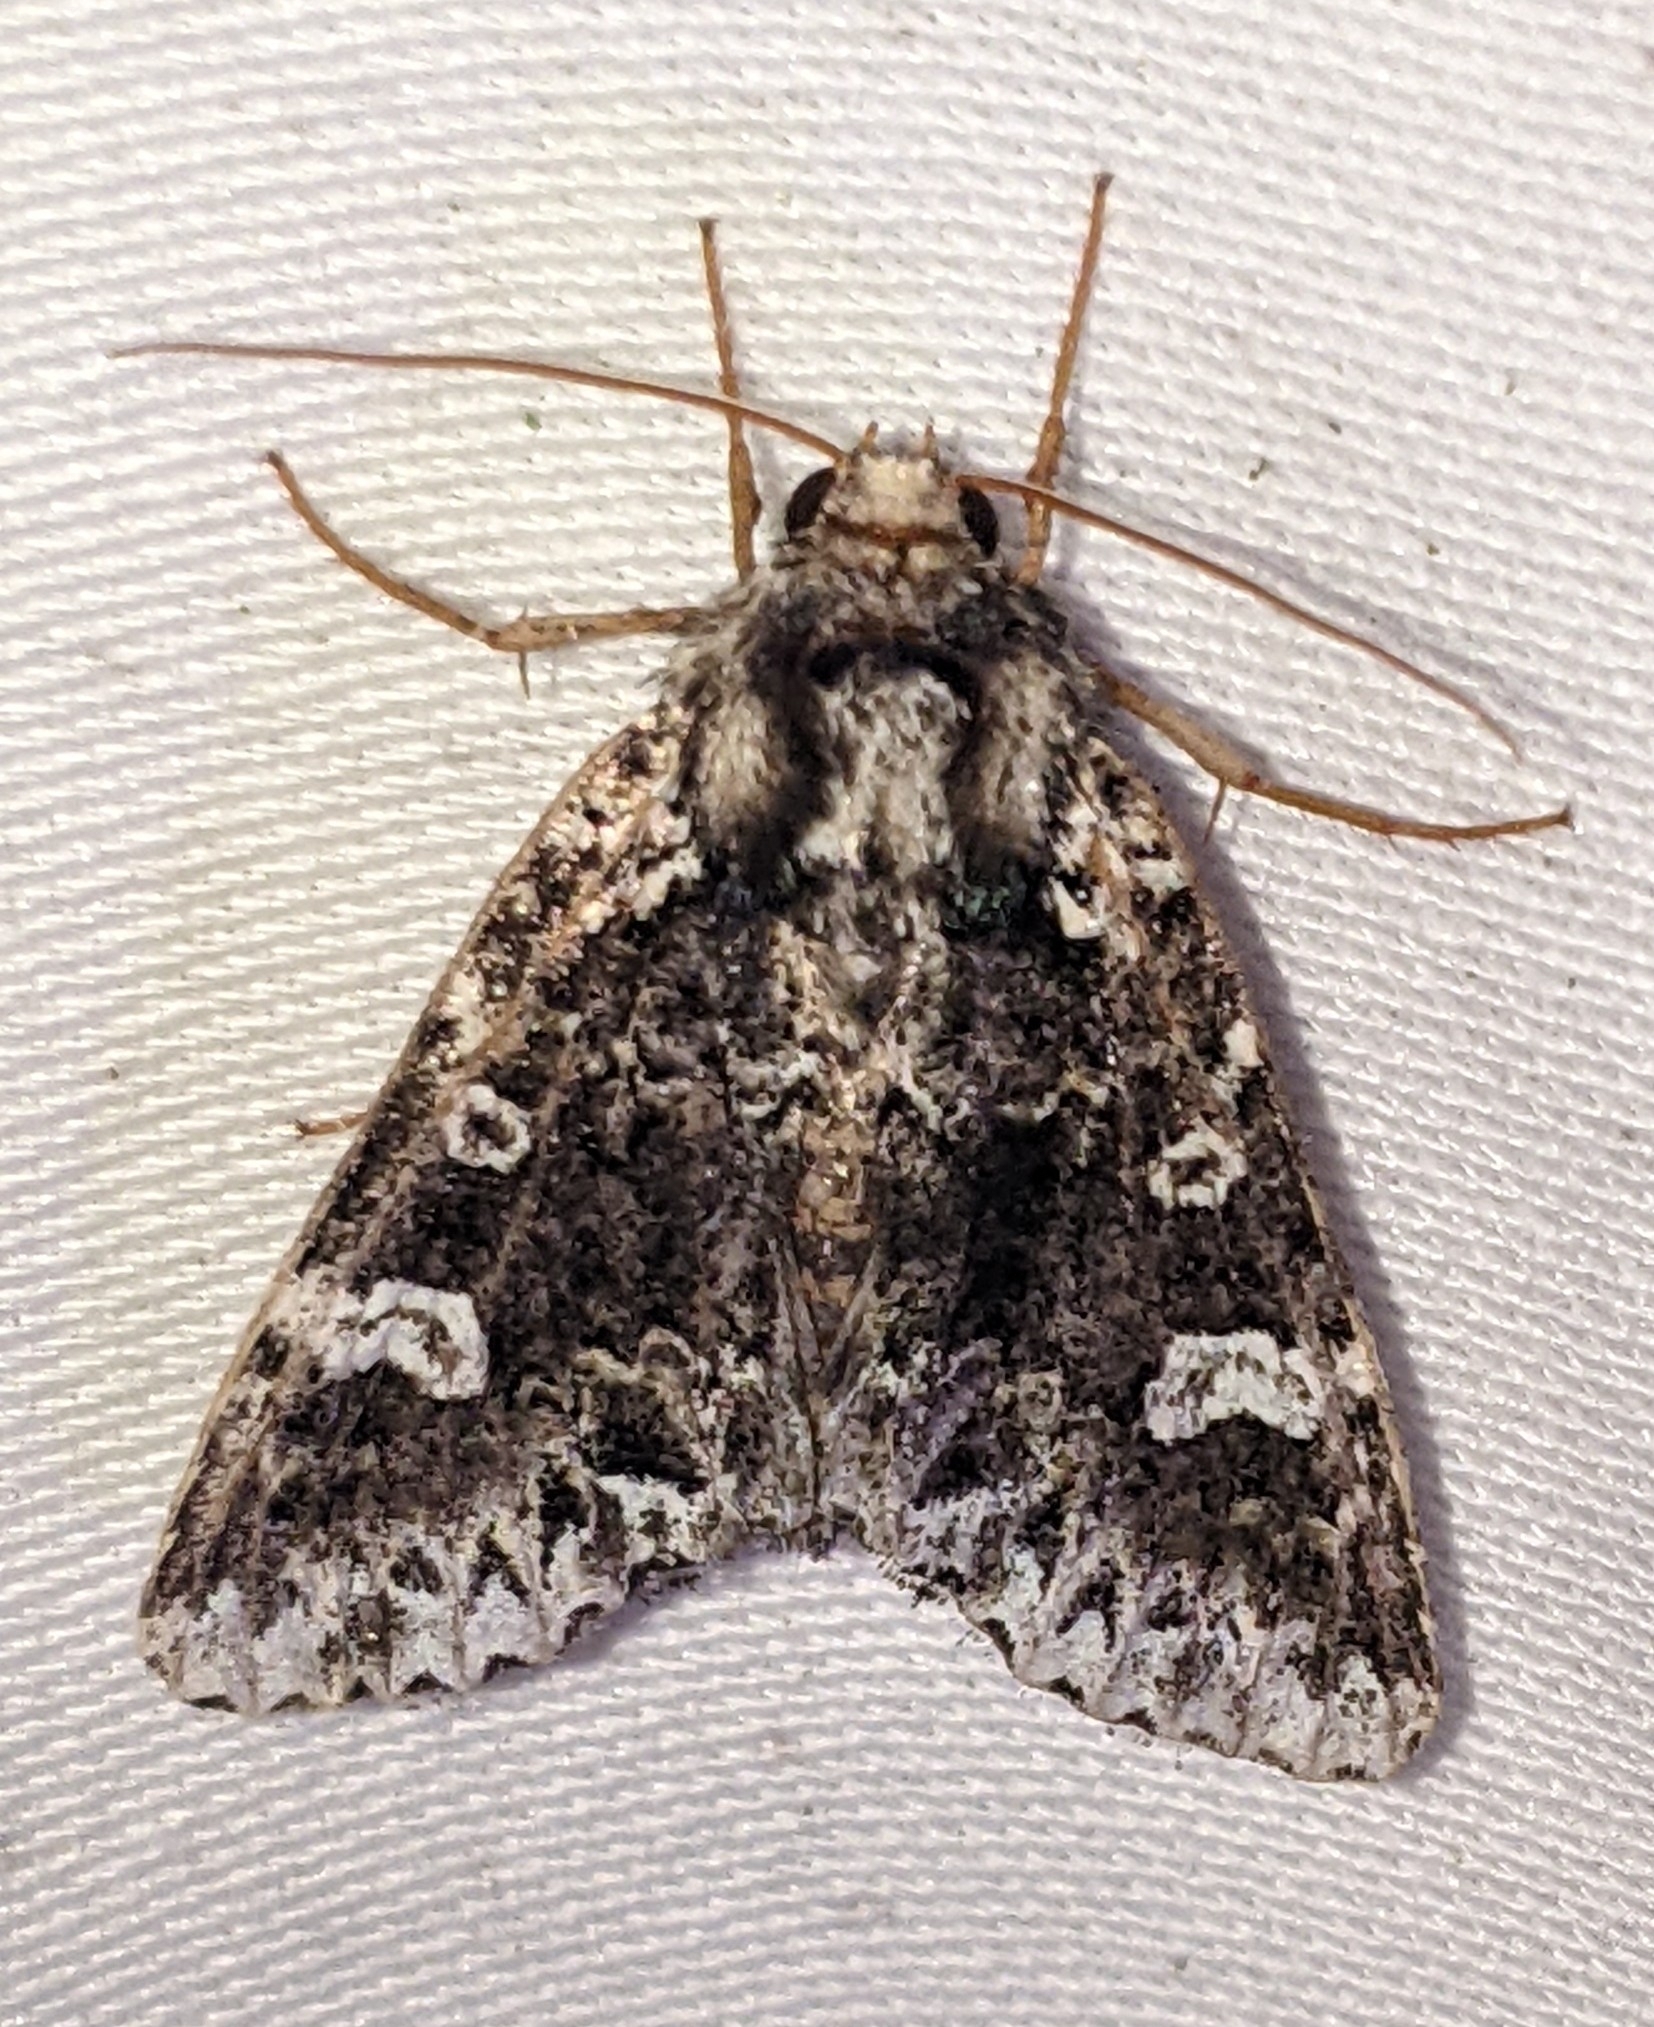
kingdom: Animalia
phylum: Arthropoda
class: Insecta
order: Lepidoptera
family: Noctuidae
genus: Melanchra
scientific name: Melanchra adjuncta
